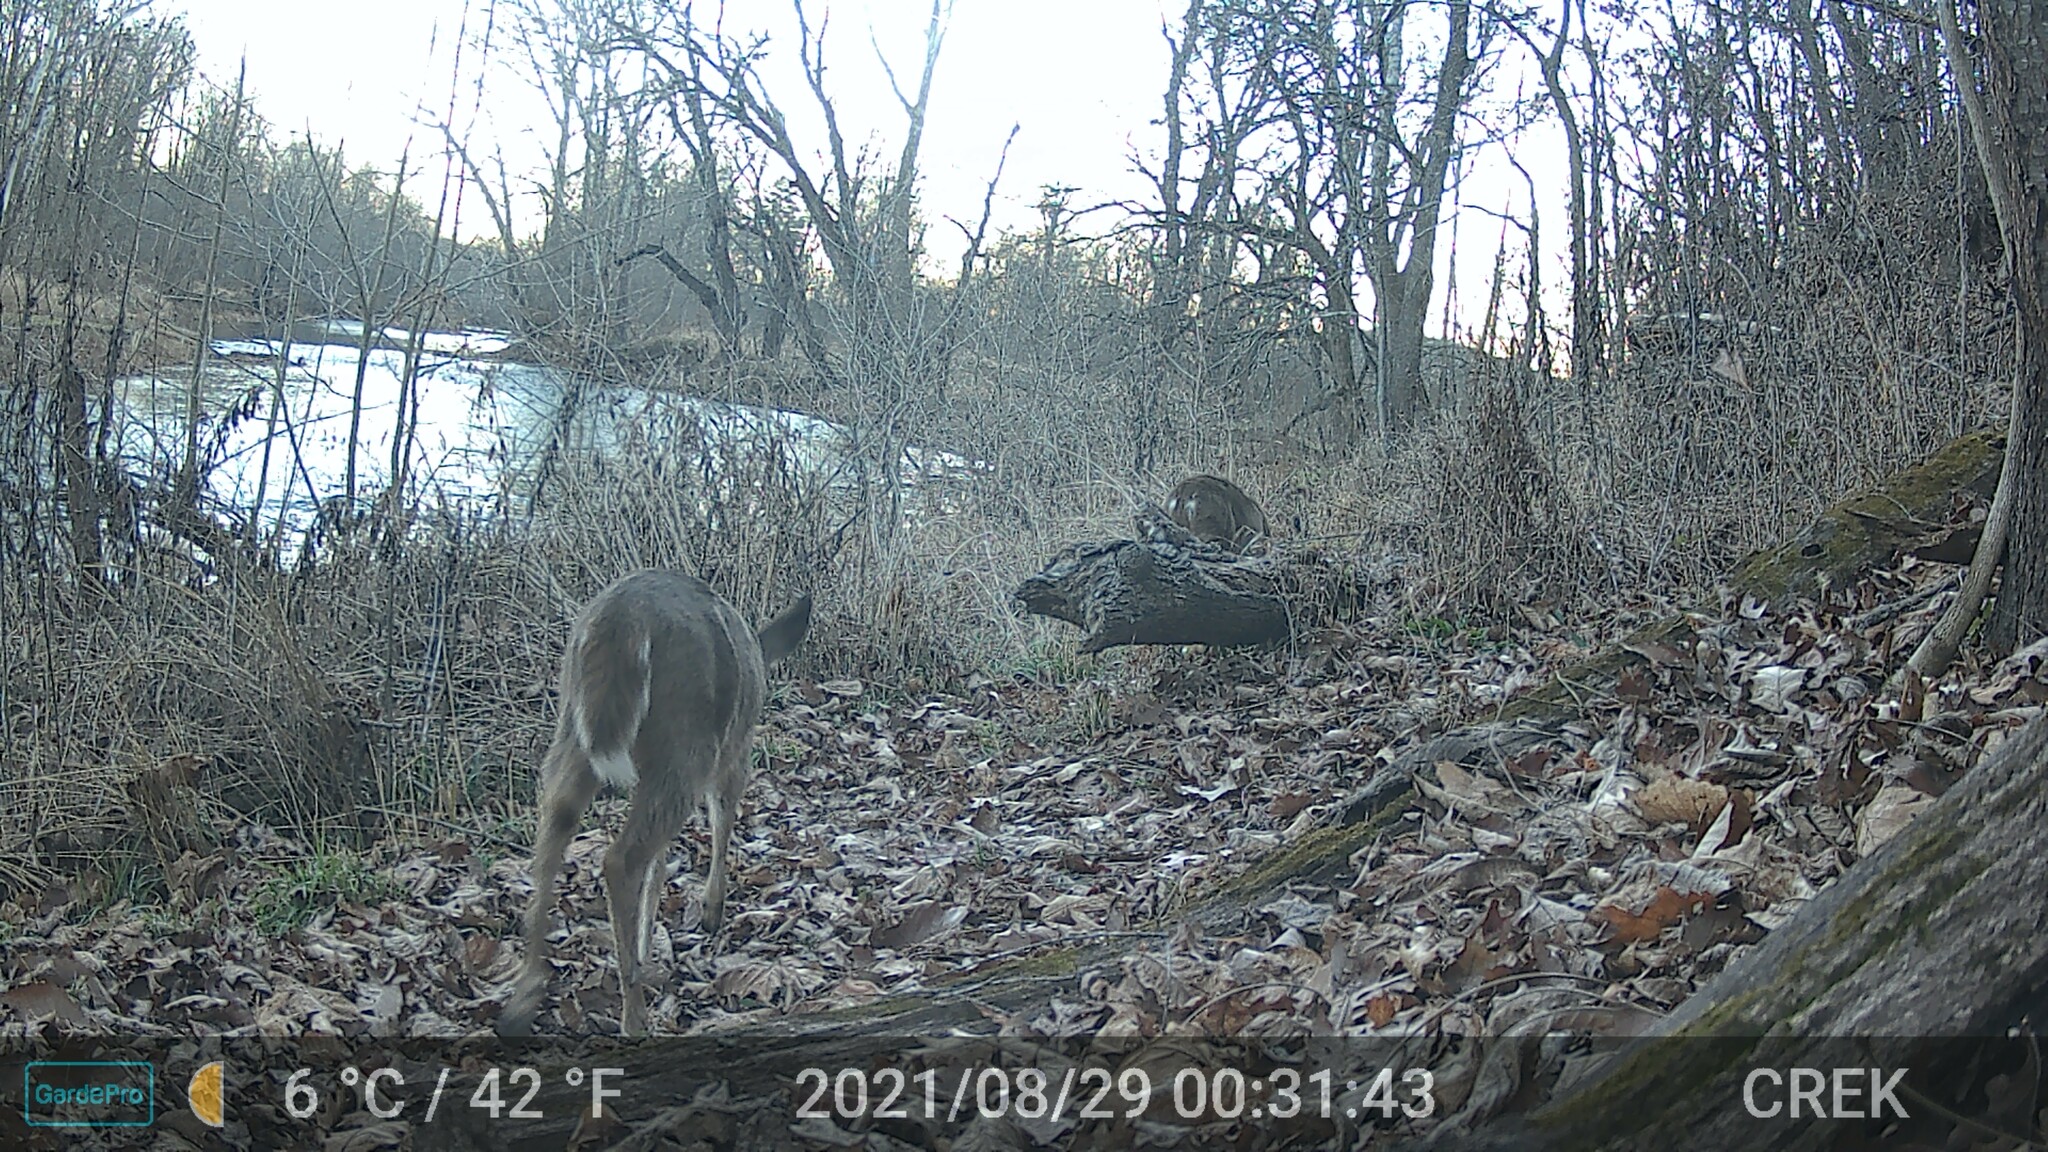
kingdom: Animalia
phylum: Chordata
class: Mammalia
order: Artiodactyla
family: Cervidae
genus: Odocoileus
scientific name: Odocoileus virginianus
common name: White-tailed deer
